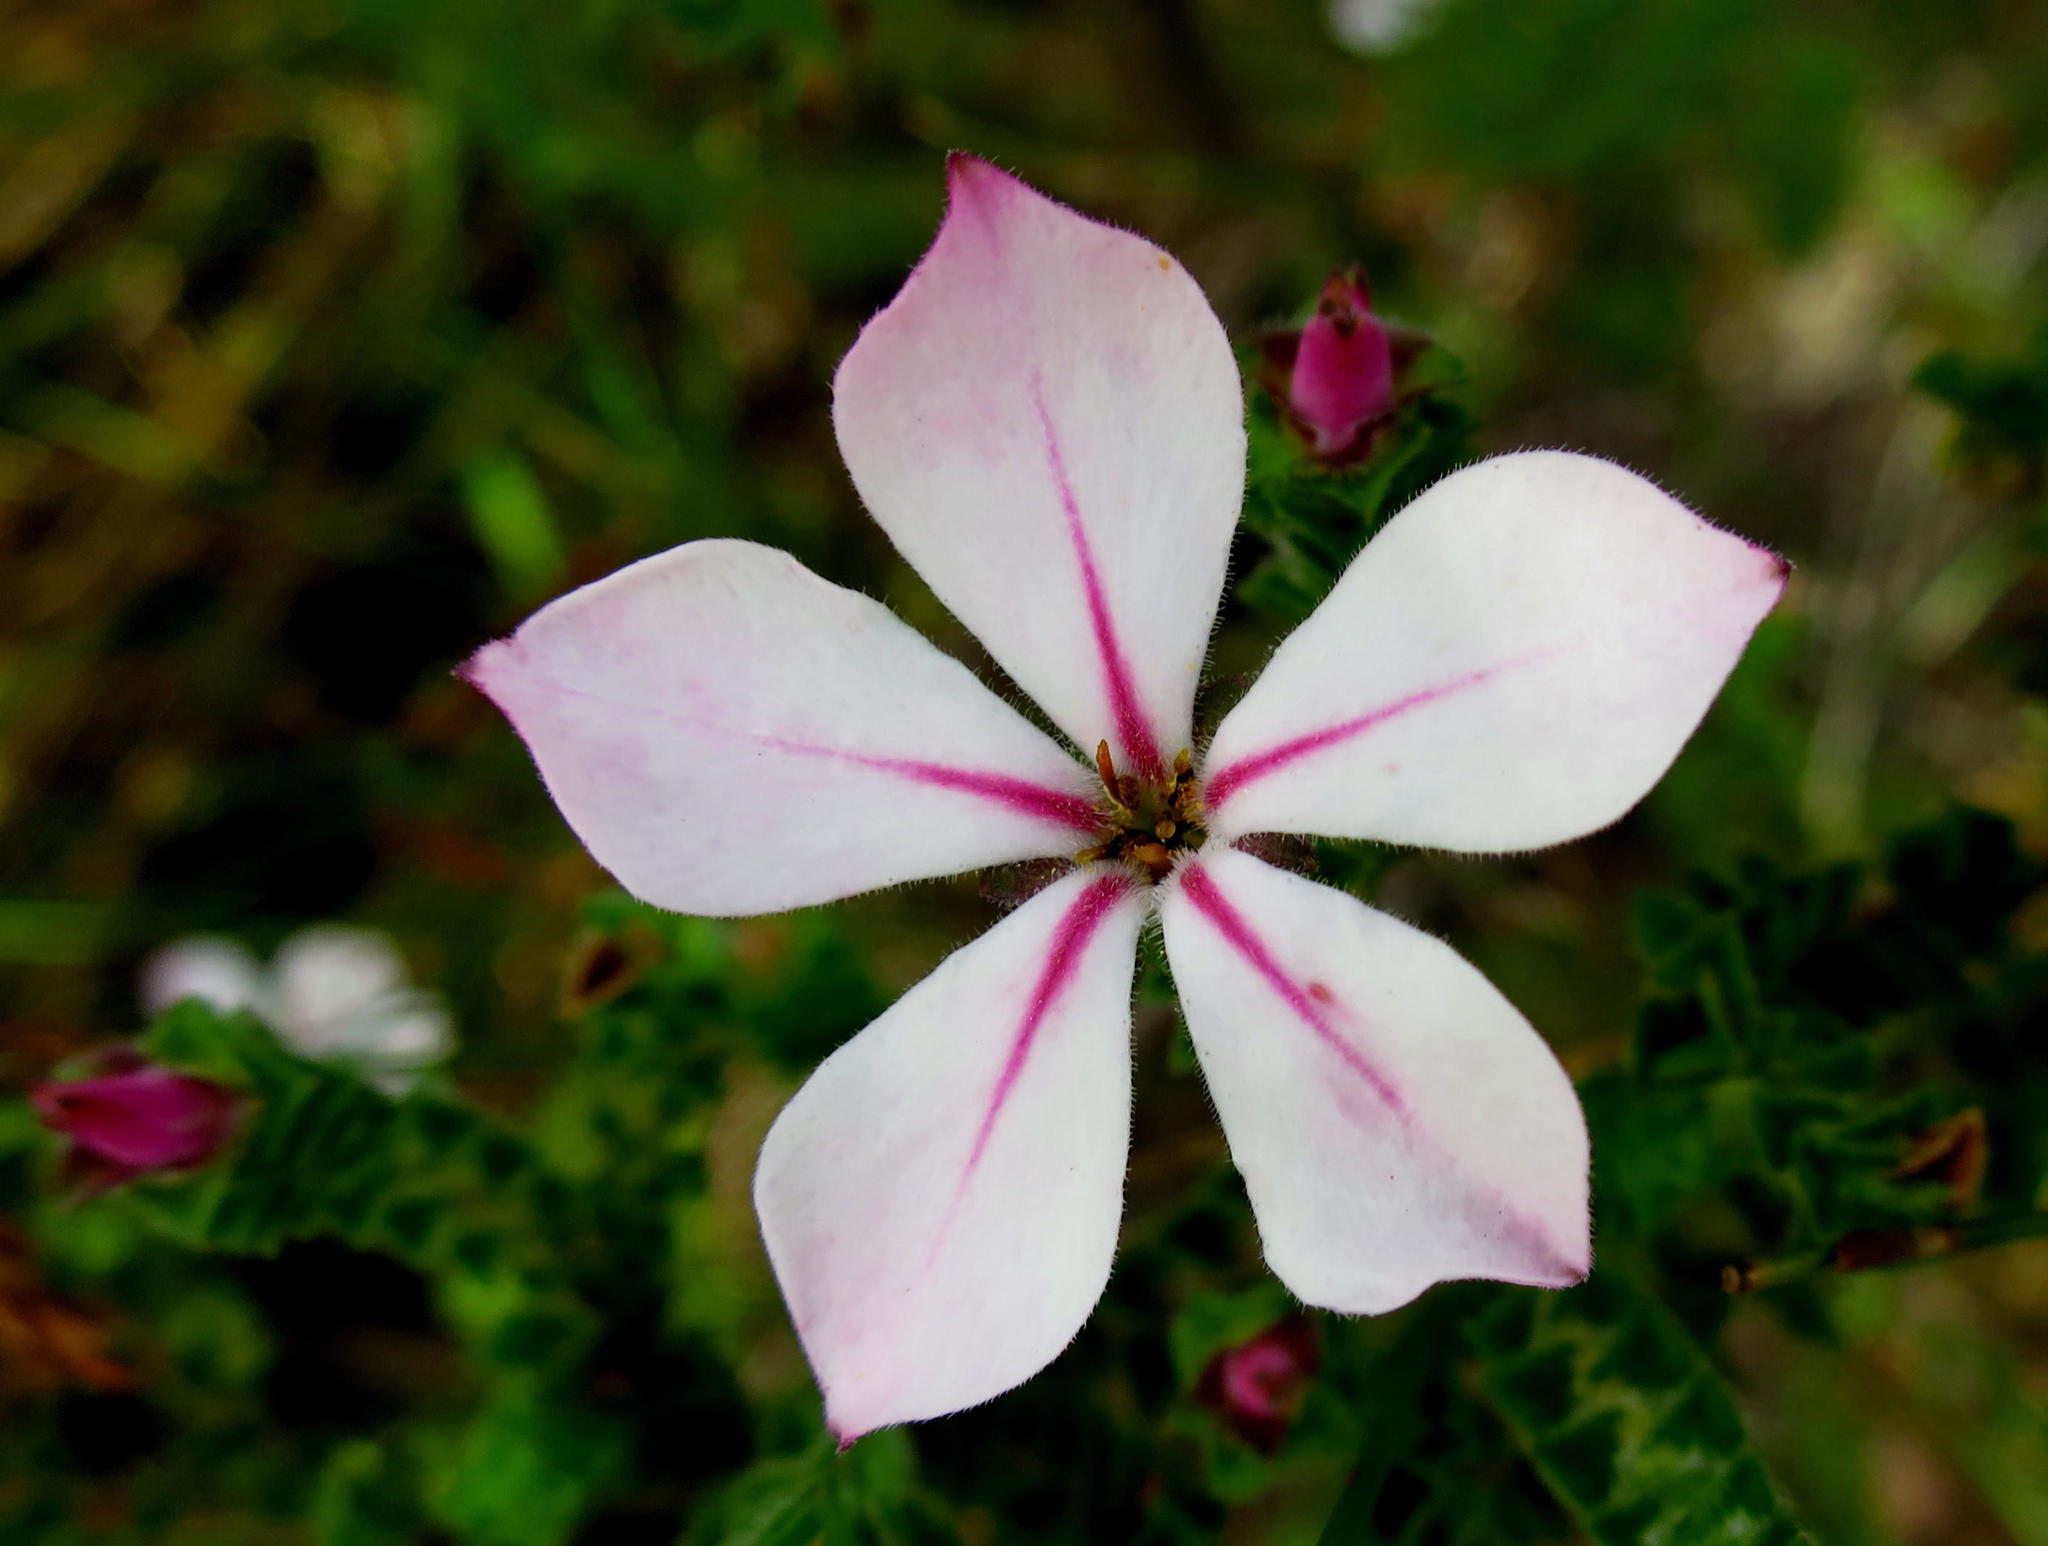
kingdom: Plantae
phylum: Tracheophyta
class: Magnoliopsida
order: Sapindales
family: Rutaceae
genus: Acmadenia
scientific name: Acmadenia tetragona
